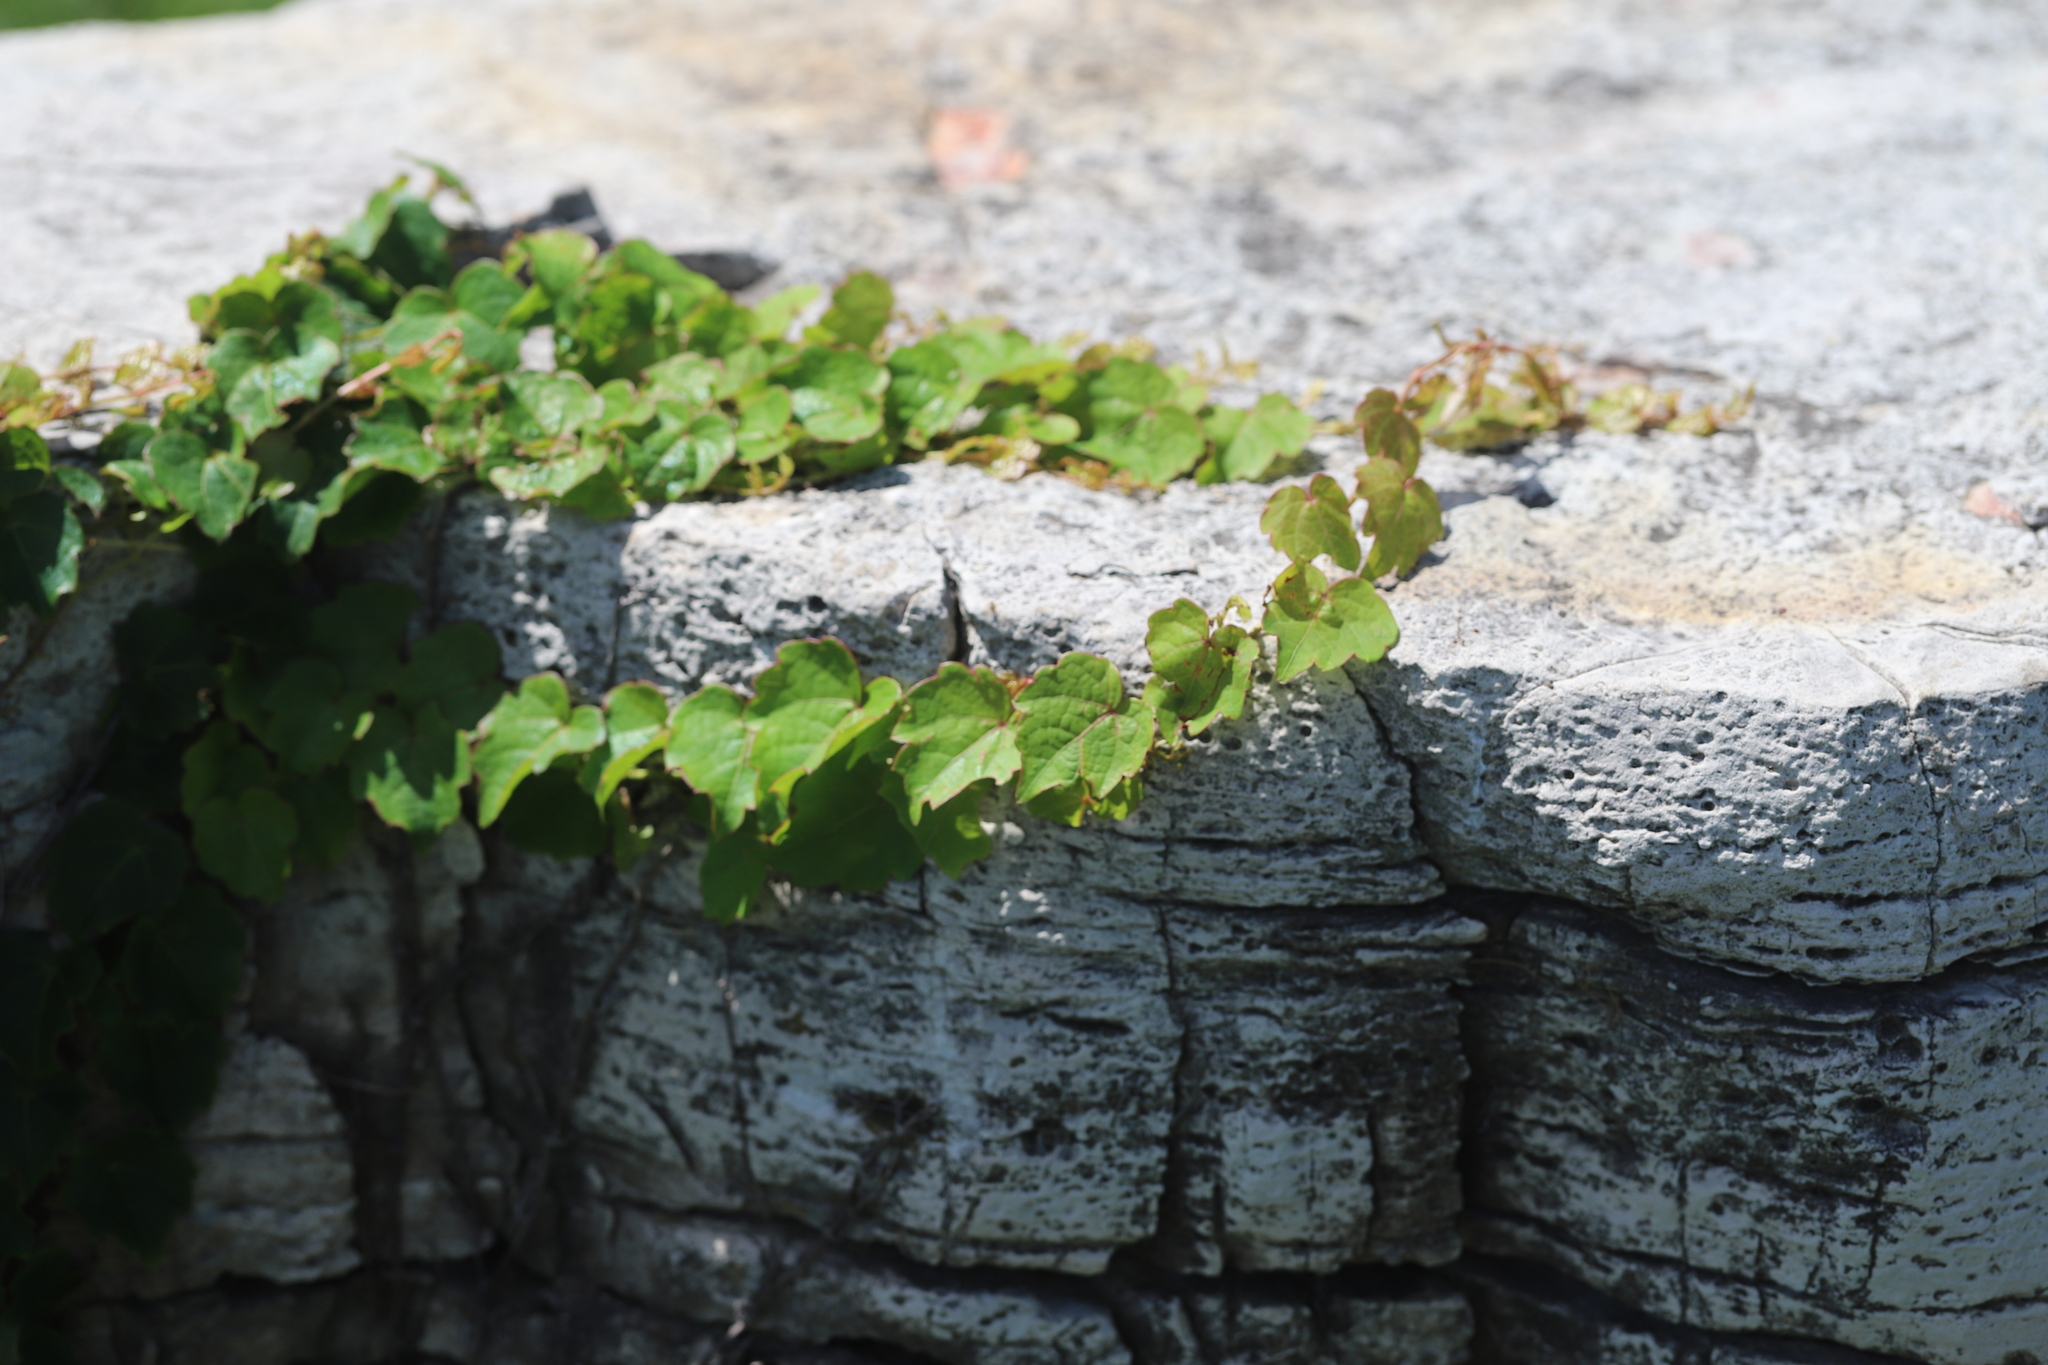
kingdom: Plantae
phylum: Tracheophyta
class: Magnoliopsida
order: Vitales
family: Vitaceae
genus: Parthenocissus
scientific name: Parthenocissus tricuspidata
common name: Boston ivy
